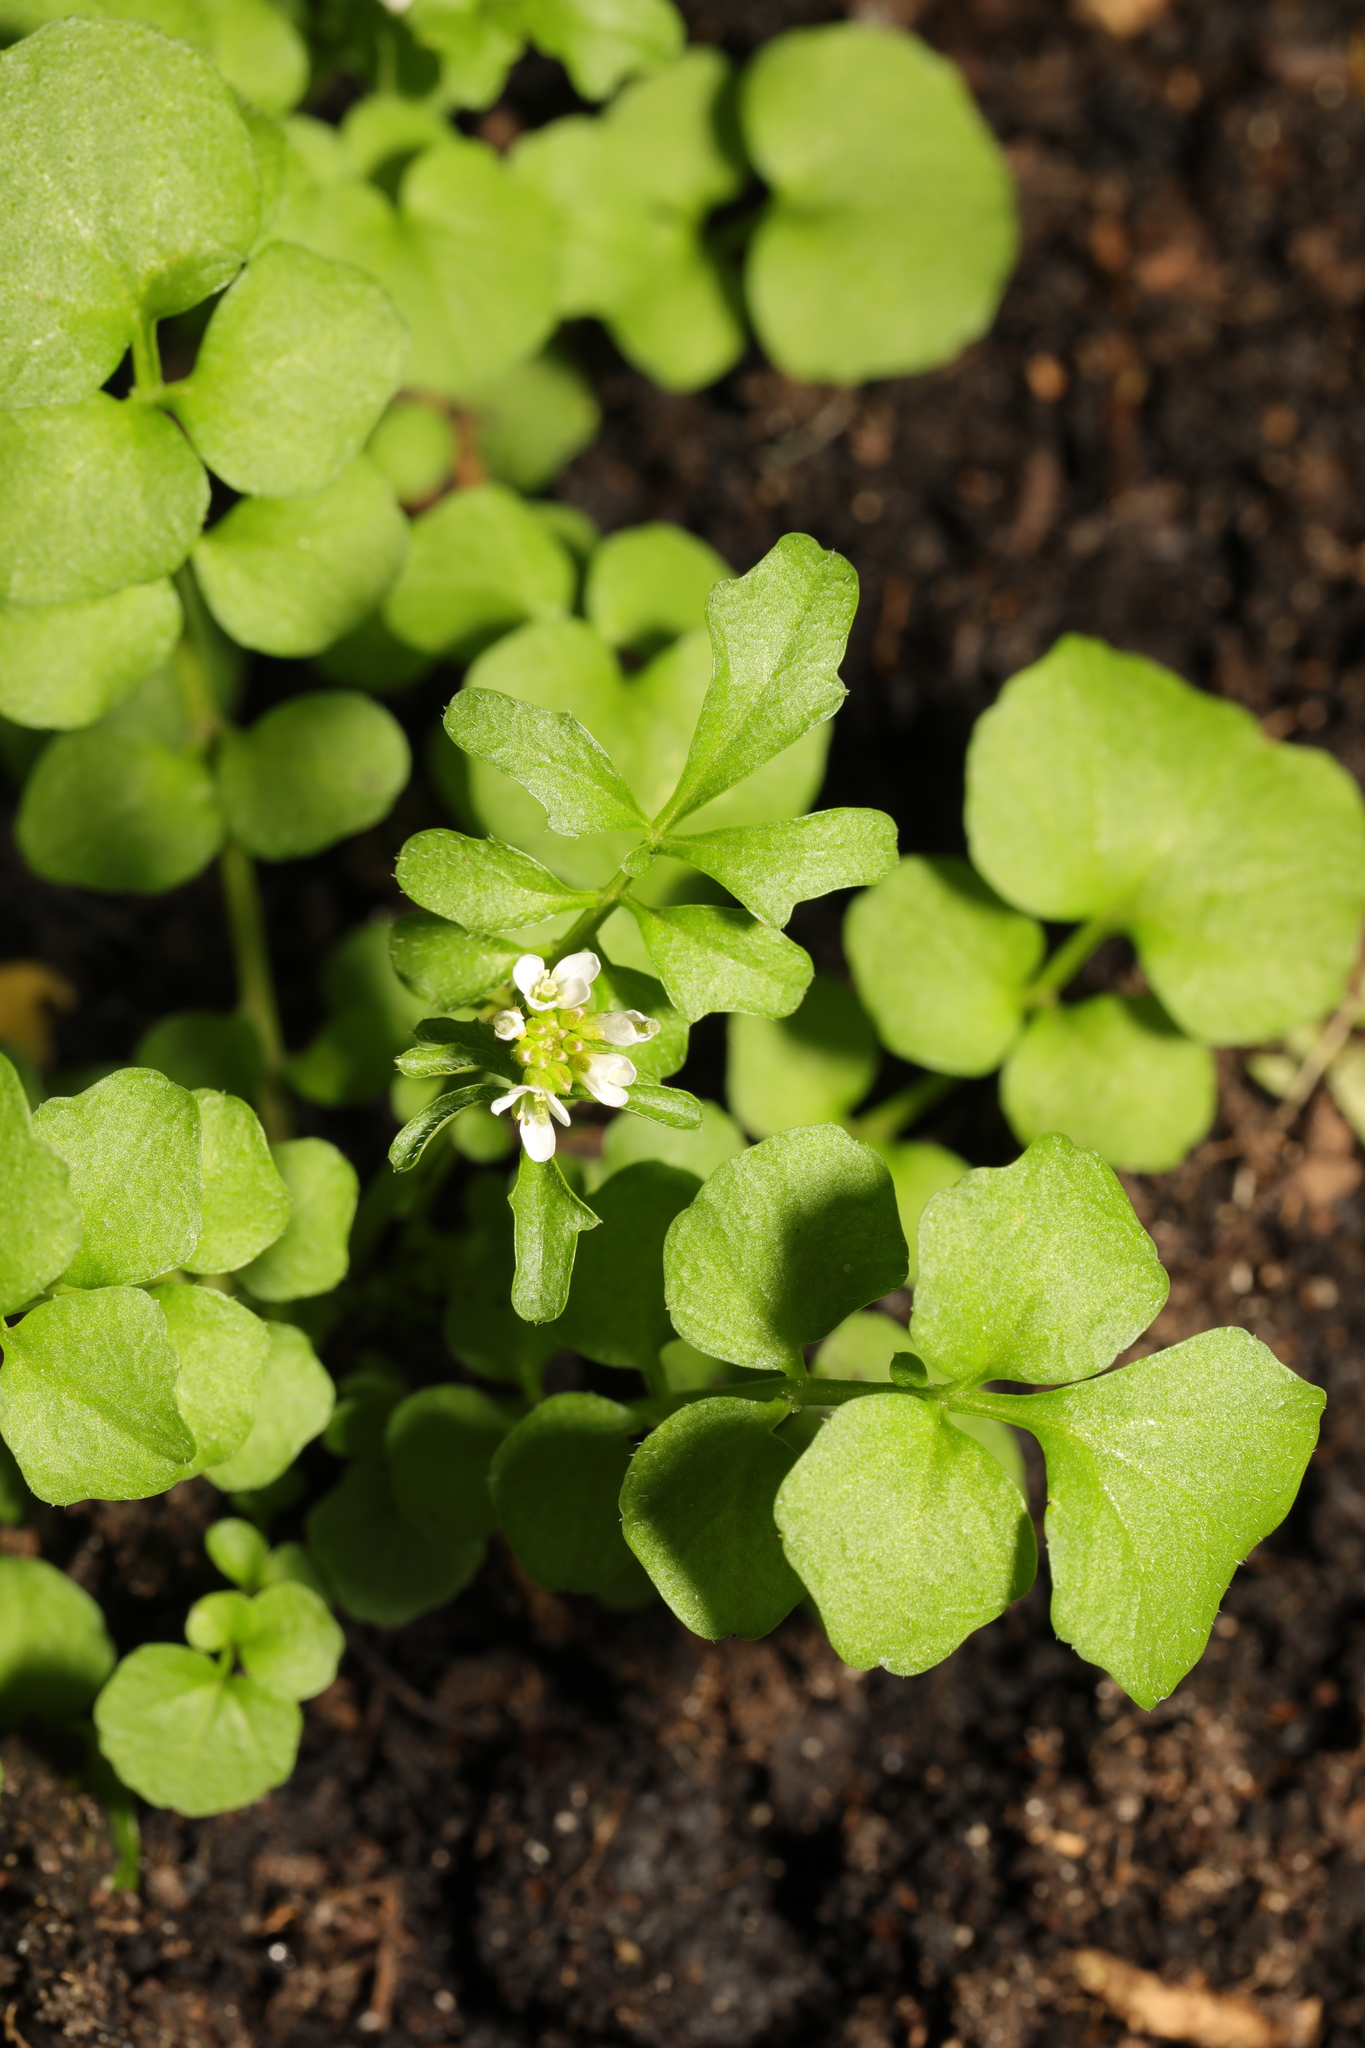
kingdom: Plantae
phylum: Tracheophyta
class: Magnoliopsida
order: Brassicales
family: Brassicaceae
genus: Cardamine
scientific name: Cardamine hirsuta
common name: Hairy bittercress
